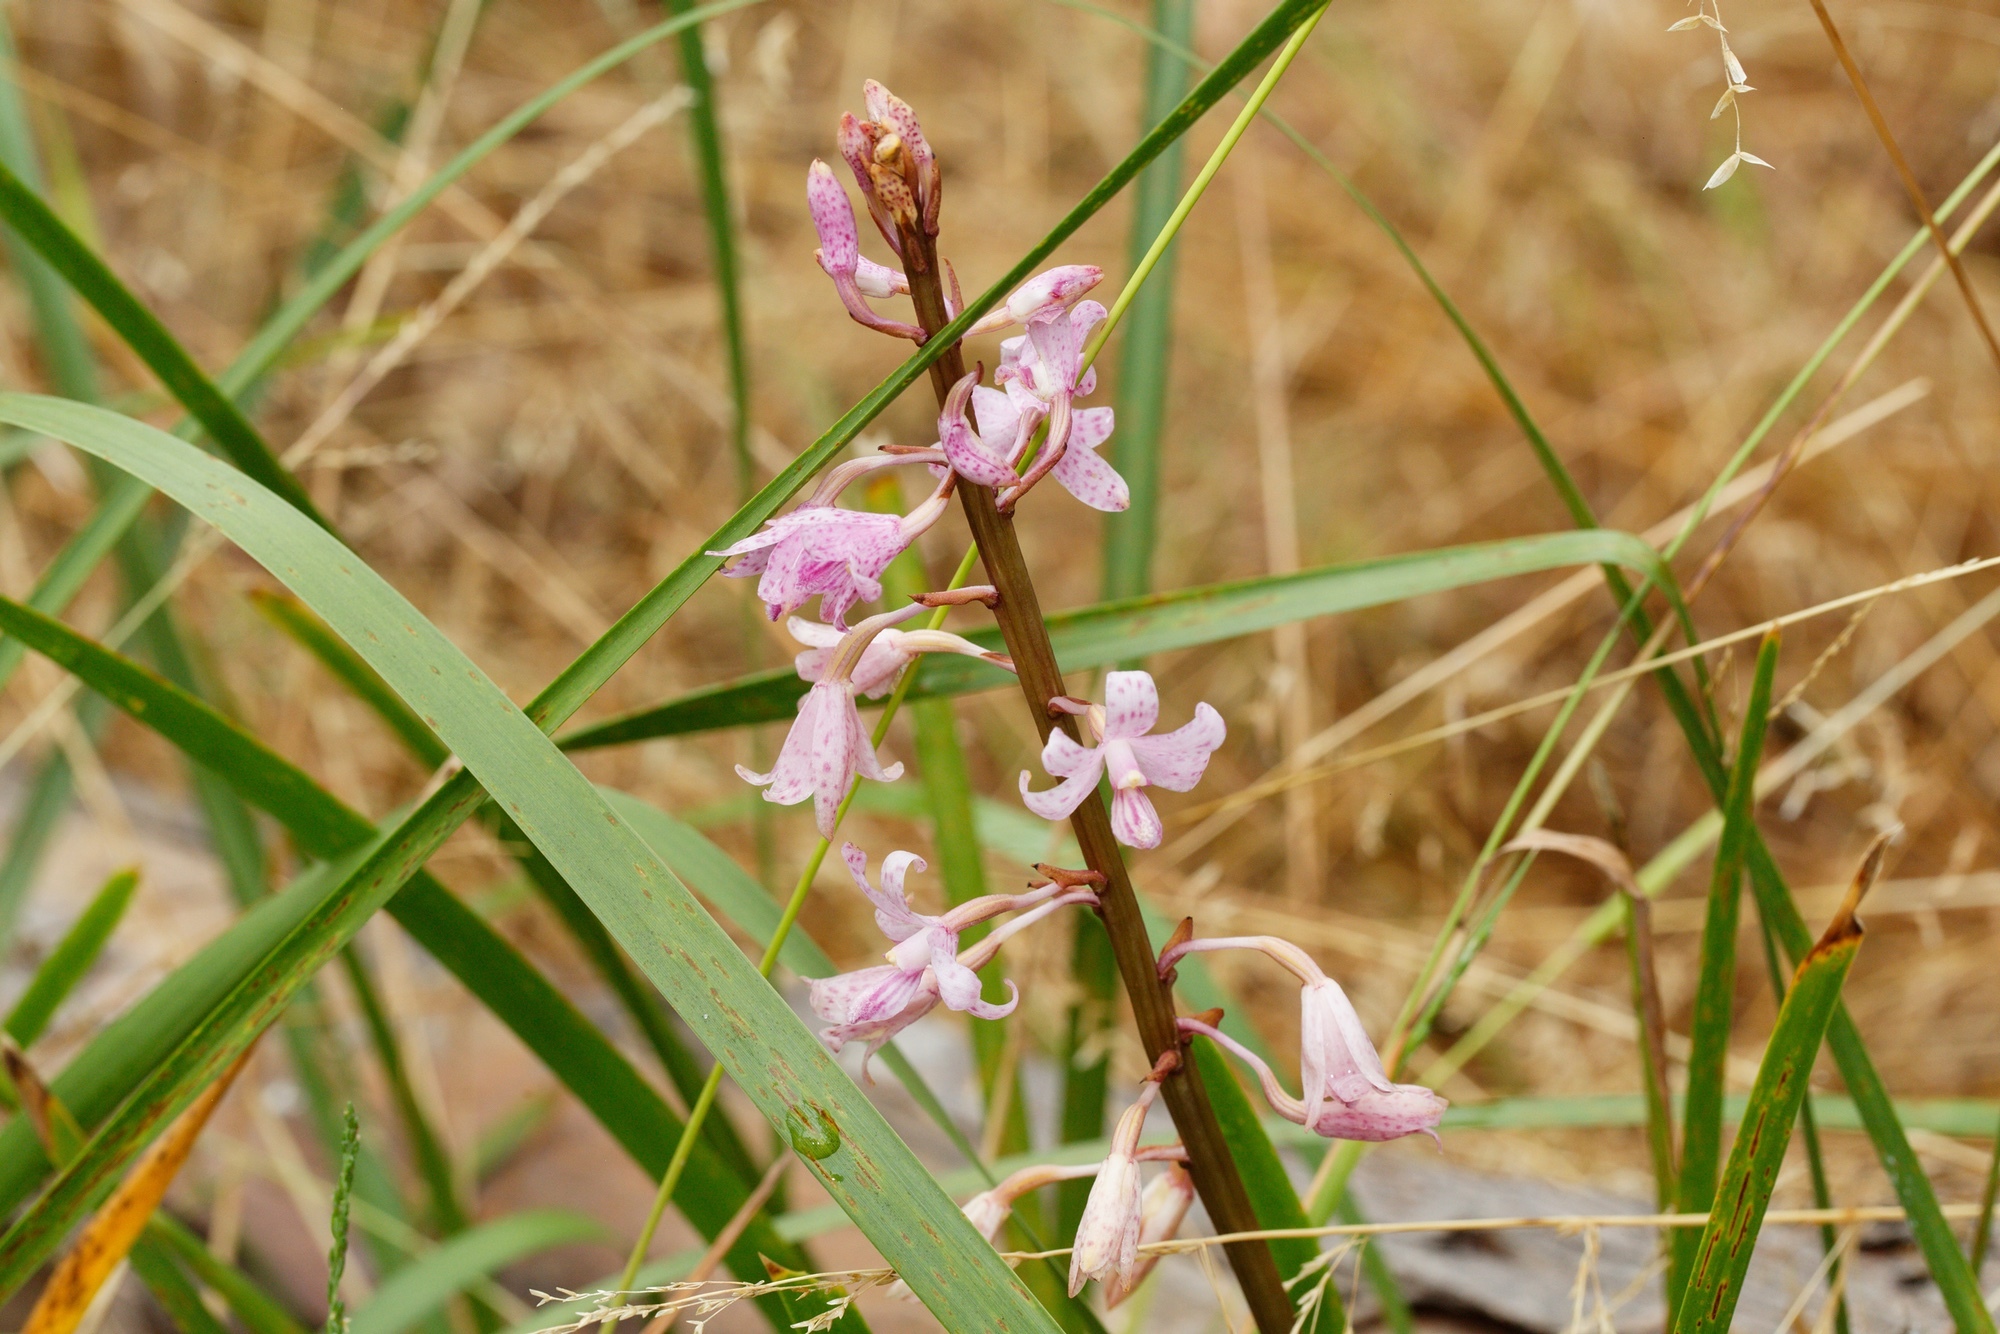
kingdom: Plantae
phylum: Tracheophyta
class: Liliopsida
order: Asparagales
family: Orchidaceae
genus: Dipodium
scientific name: Dipodium roseum
